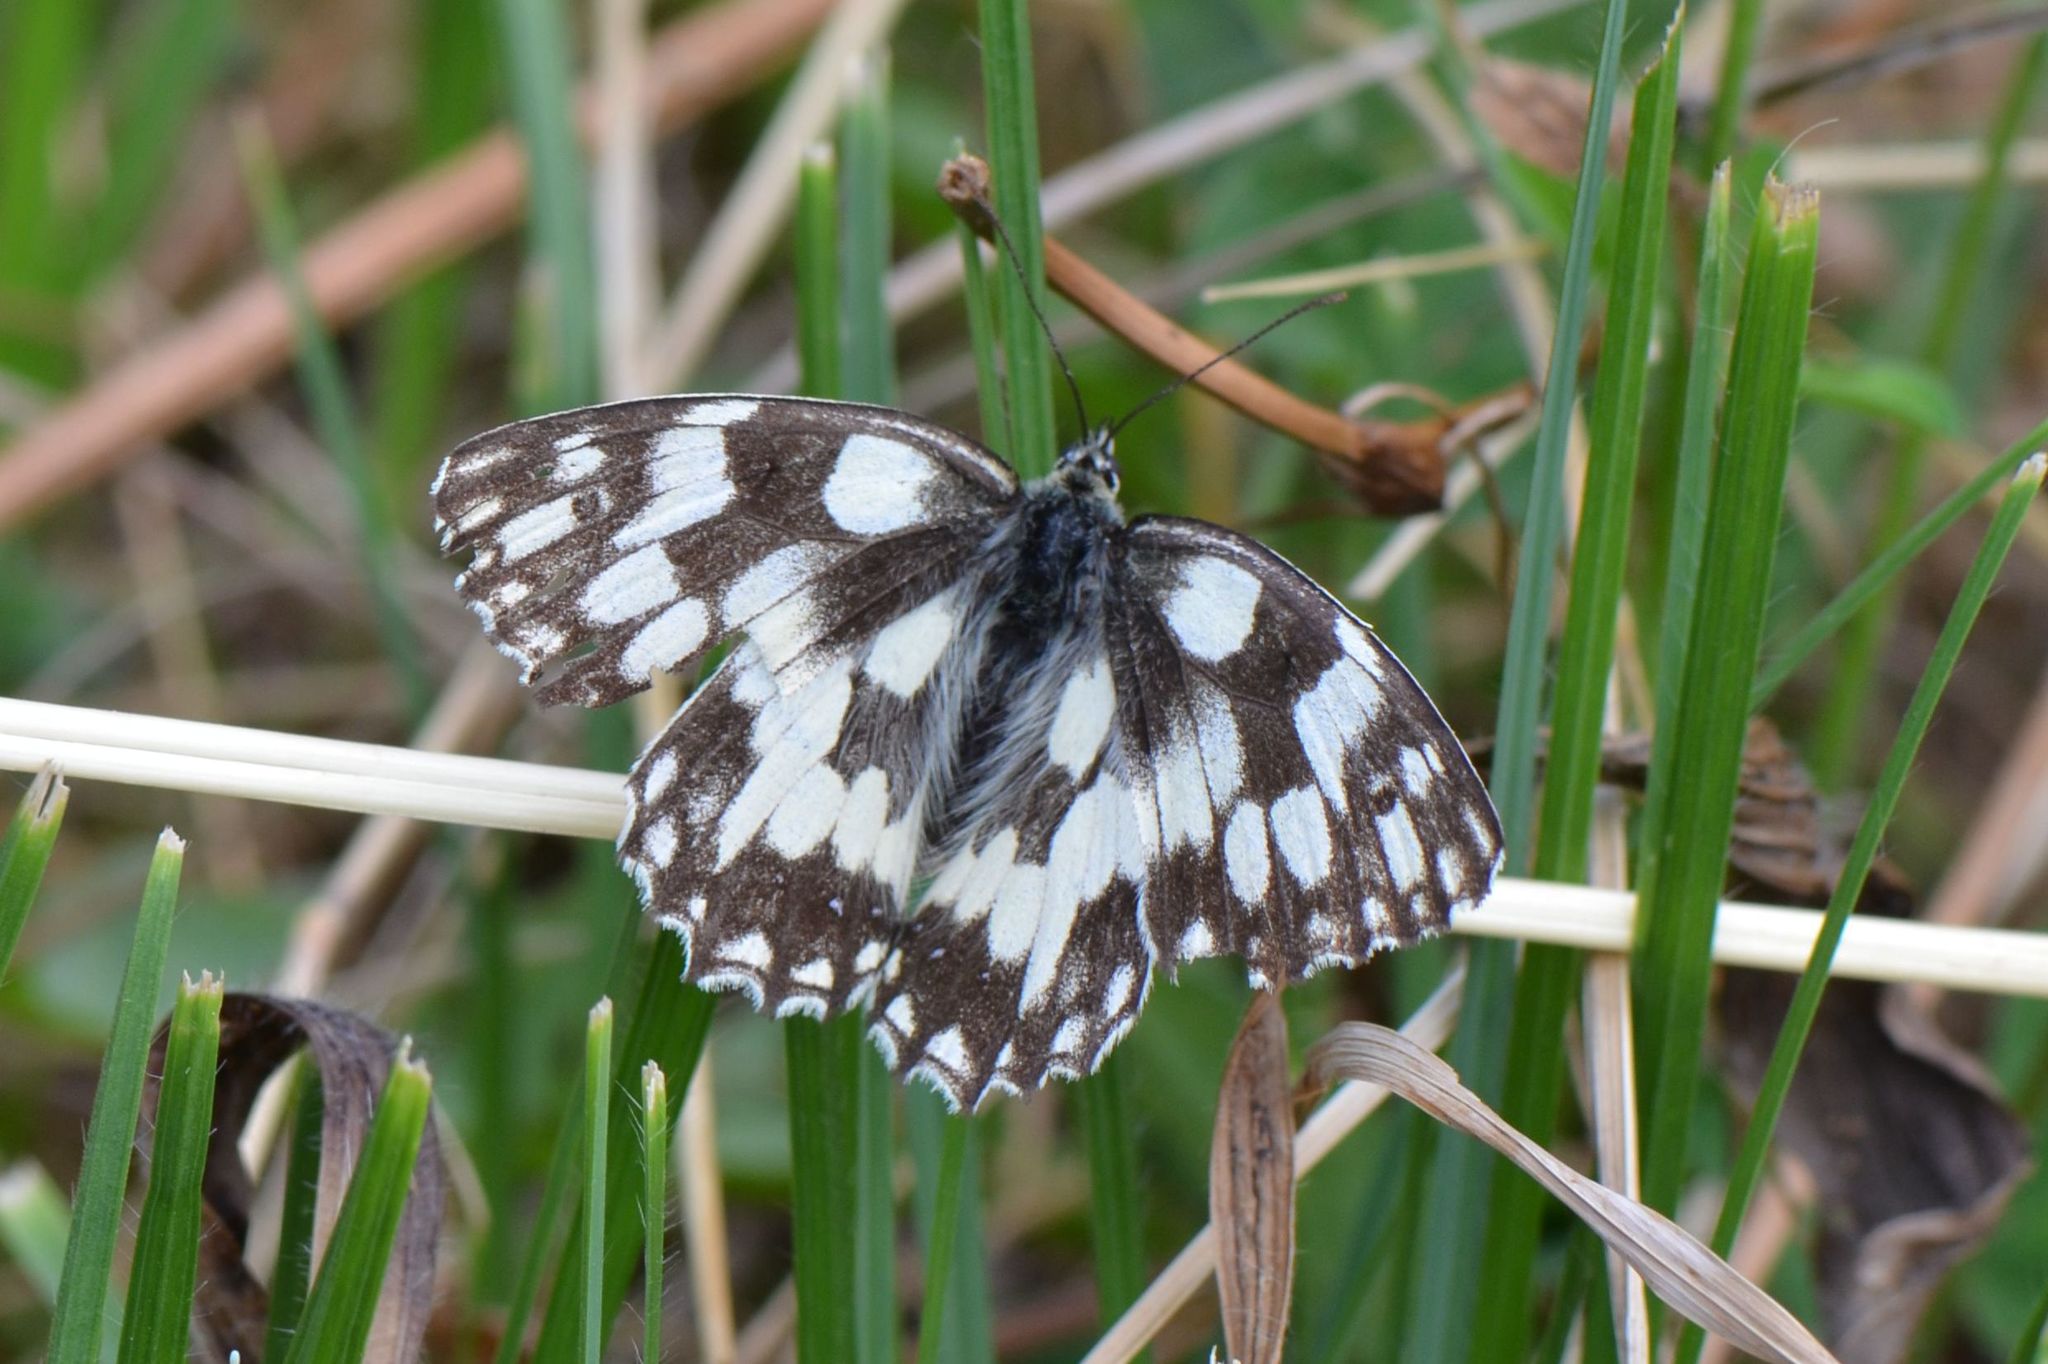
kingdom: Animalia
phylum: Arthropoda
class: Insecta
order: Lepidoptera
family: Nymphalidae
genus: Melanargia
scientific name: Melanargia galathea
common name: Marbled white
